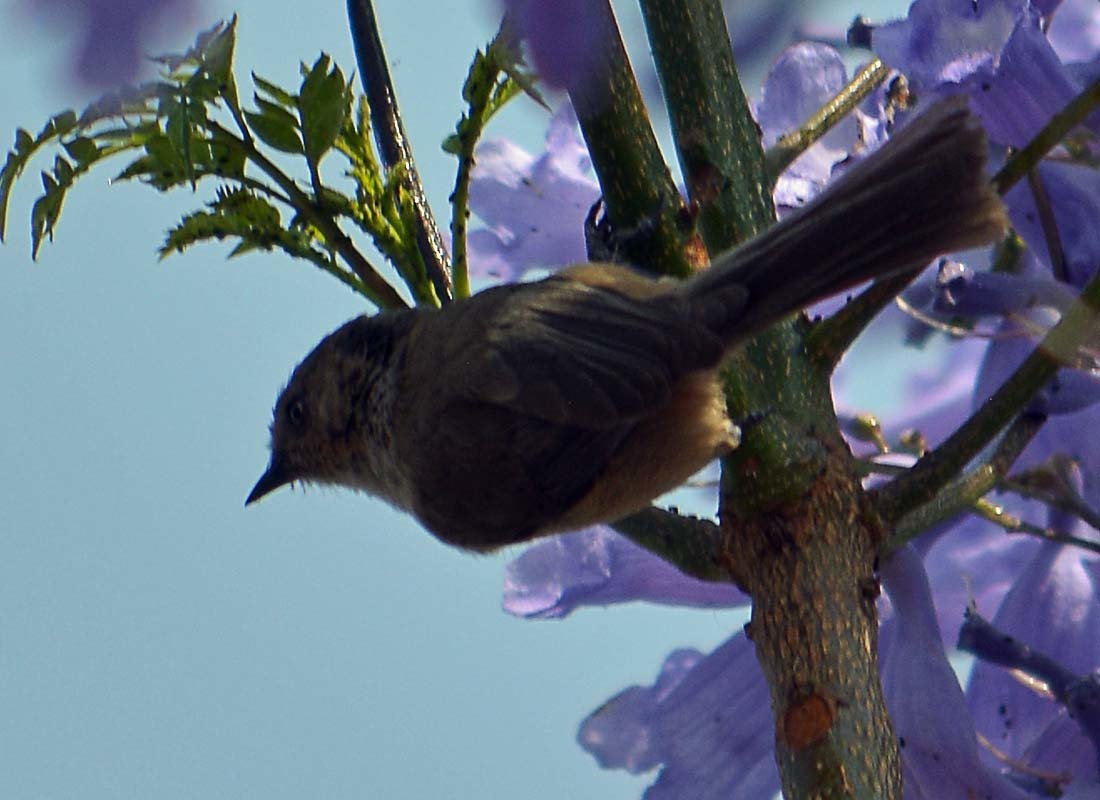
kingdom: Animalia
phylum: Chordata
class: Aves
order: Passeriformes
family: Aegithalidae
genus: Psaltriparus
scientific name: Psaltriparus minimus
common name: American bushtit
